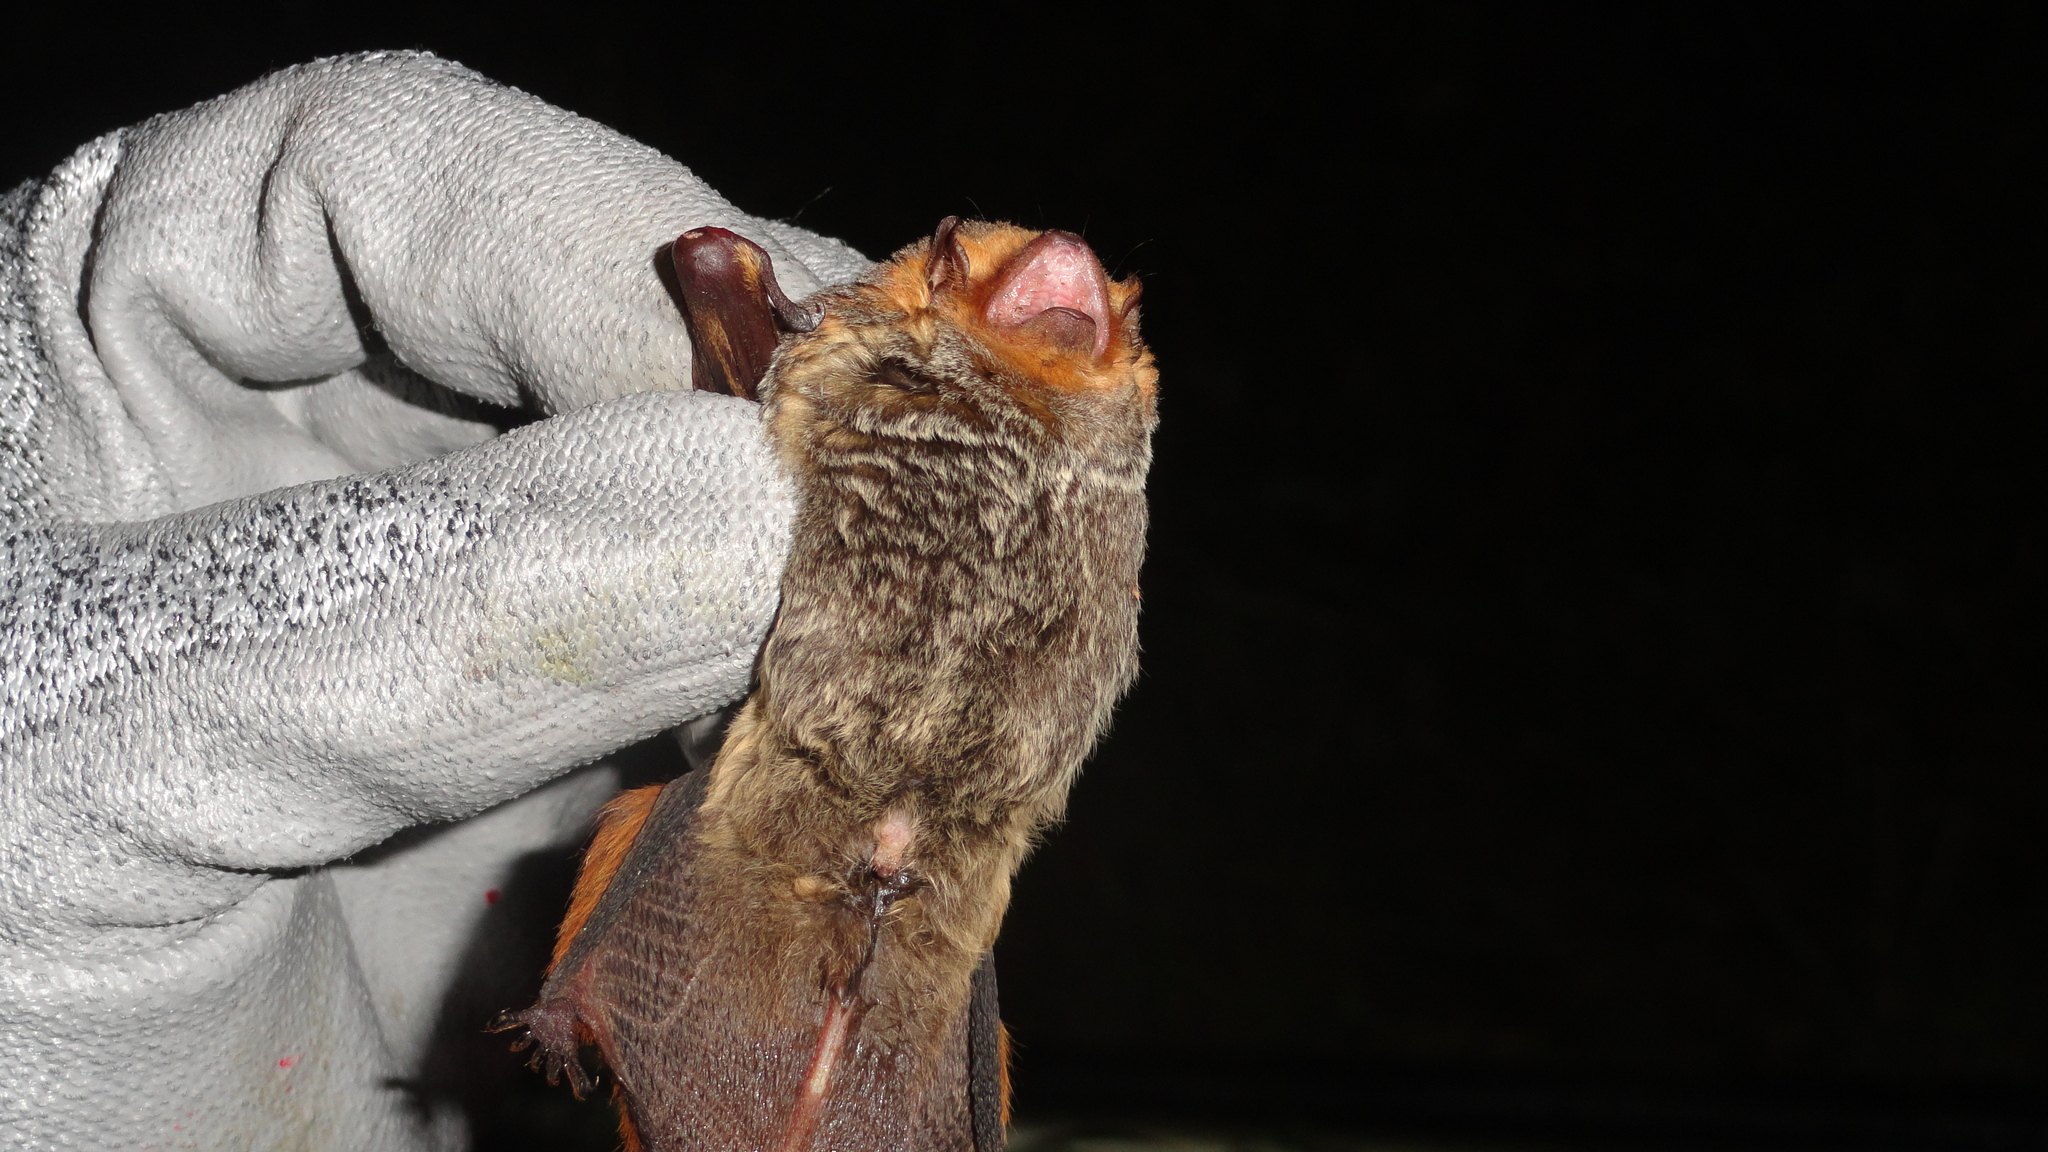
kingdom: Animalia
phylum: Chordata
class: Mammalia
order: Chiroptera
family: Vespertilionidae
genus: Lasiurus
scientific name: Lasiurus blossevillii
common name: Southern red bat
